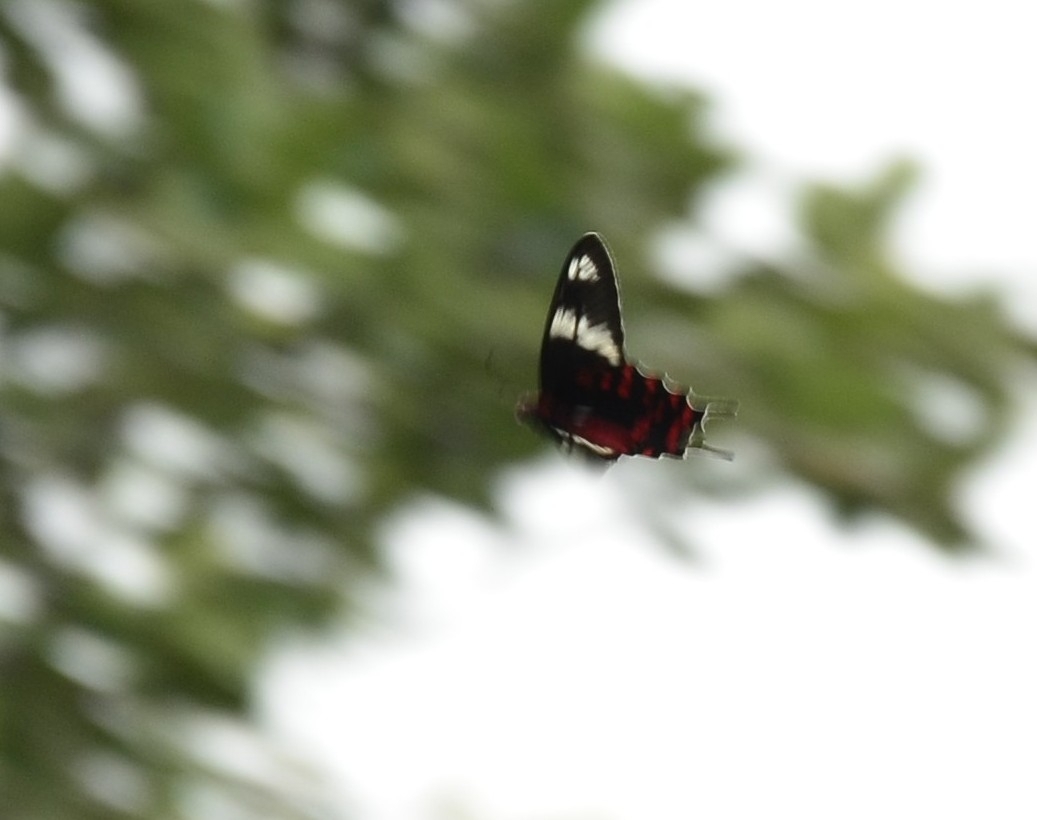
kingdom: Animalia
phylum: Arthropoda
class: Insecta
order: Lepidoptera
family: Papilionidae
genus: Pachliopta
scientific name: Pachliopta hector
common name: Crimson rose
